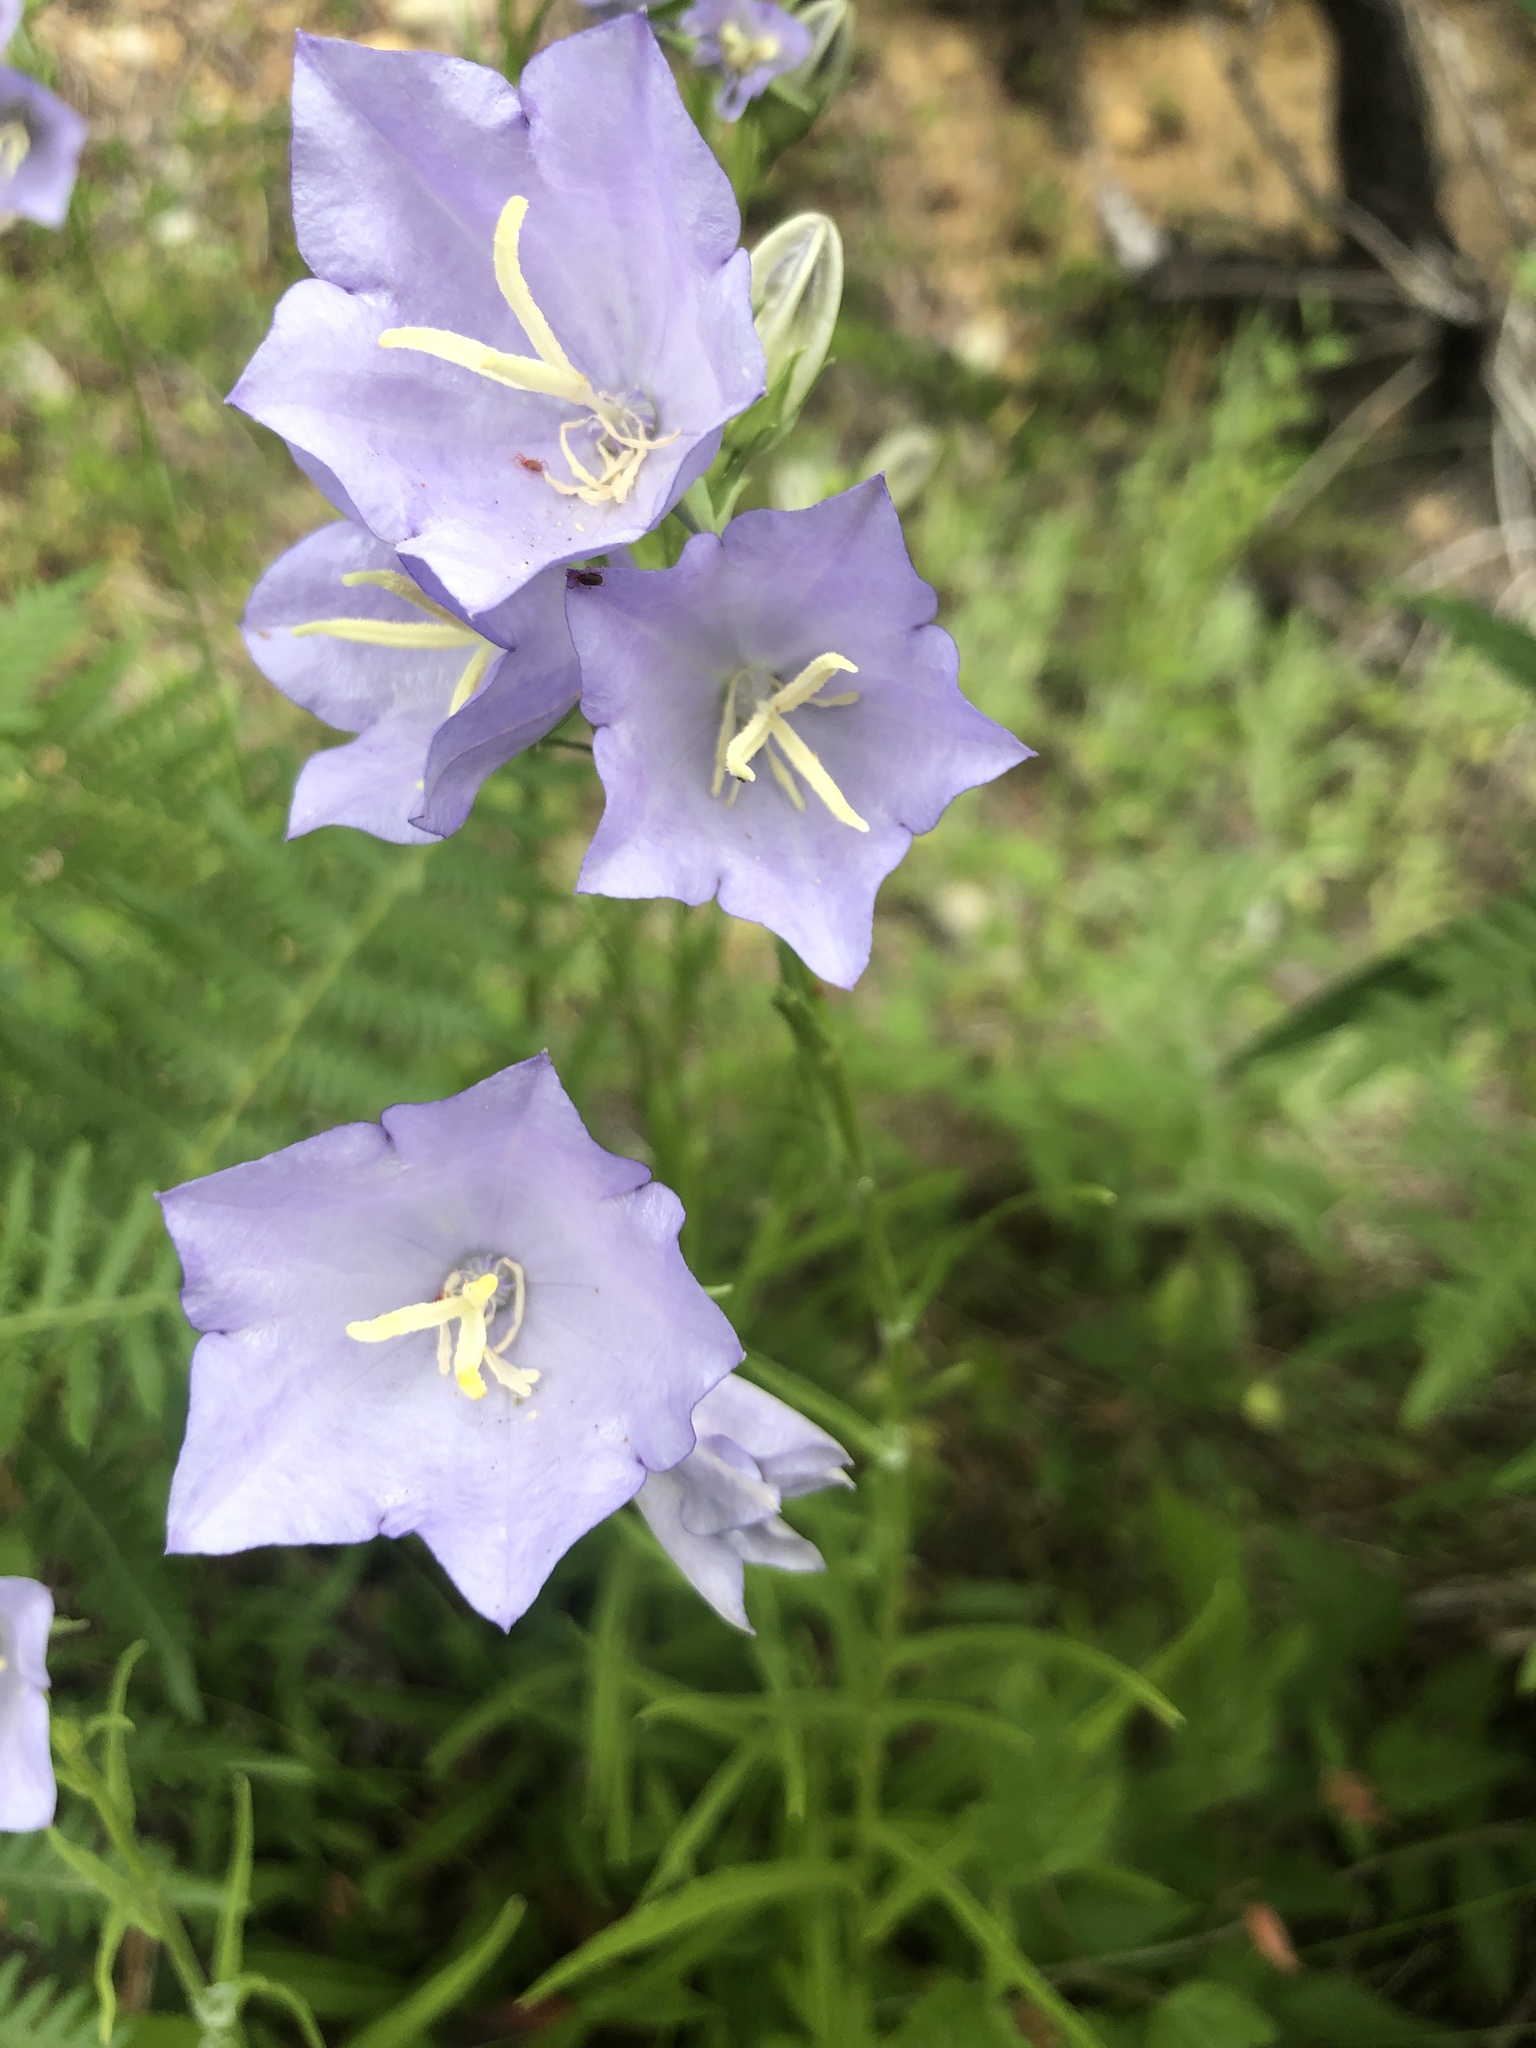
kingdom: Plantae
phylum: Tracheophyta
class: Magnoliopsida
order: Asterales
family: Campanulaceae
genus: Campanula
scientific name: Campanula persicifolia
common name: Peach-leaved bellflower
